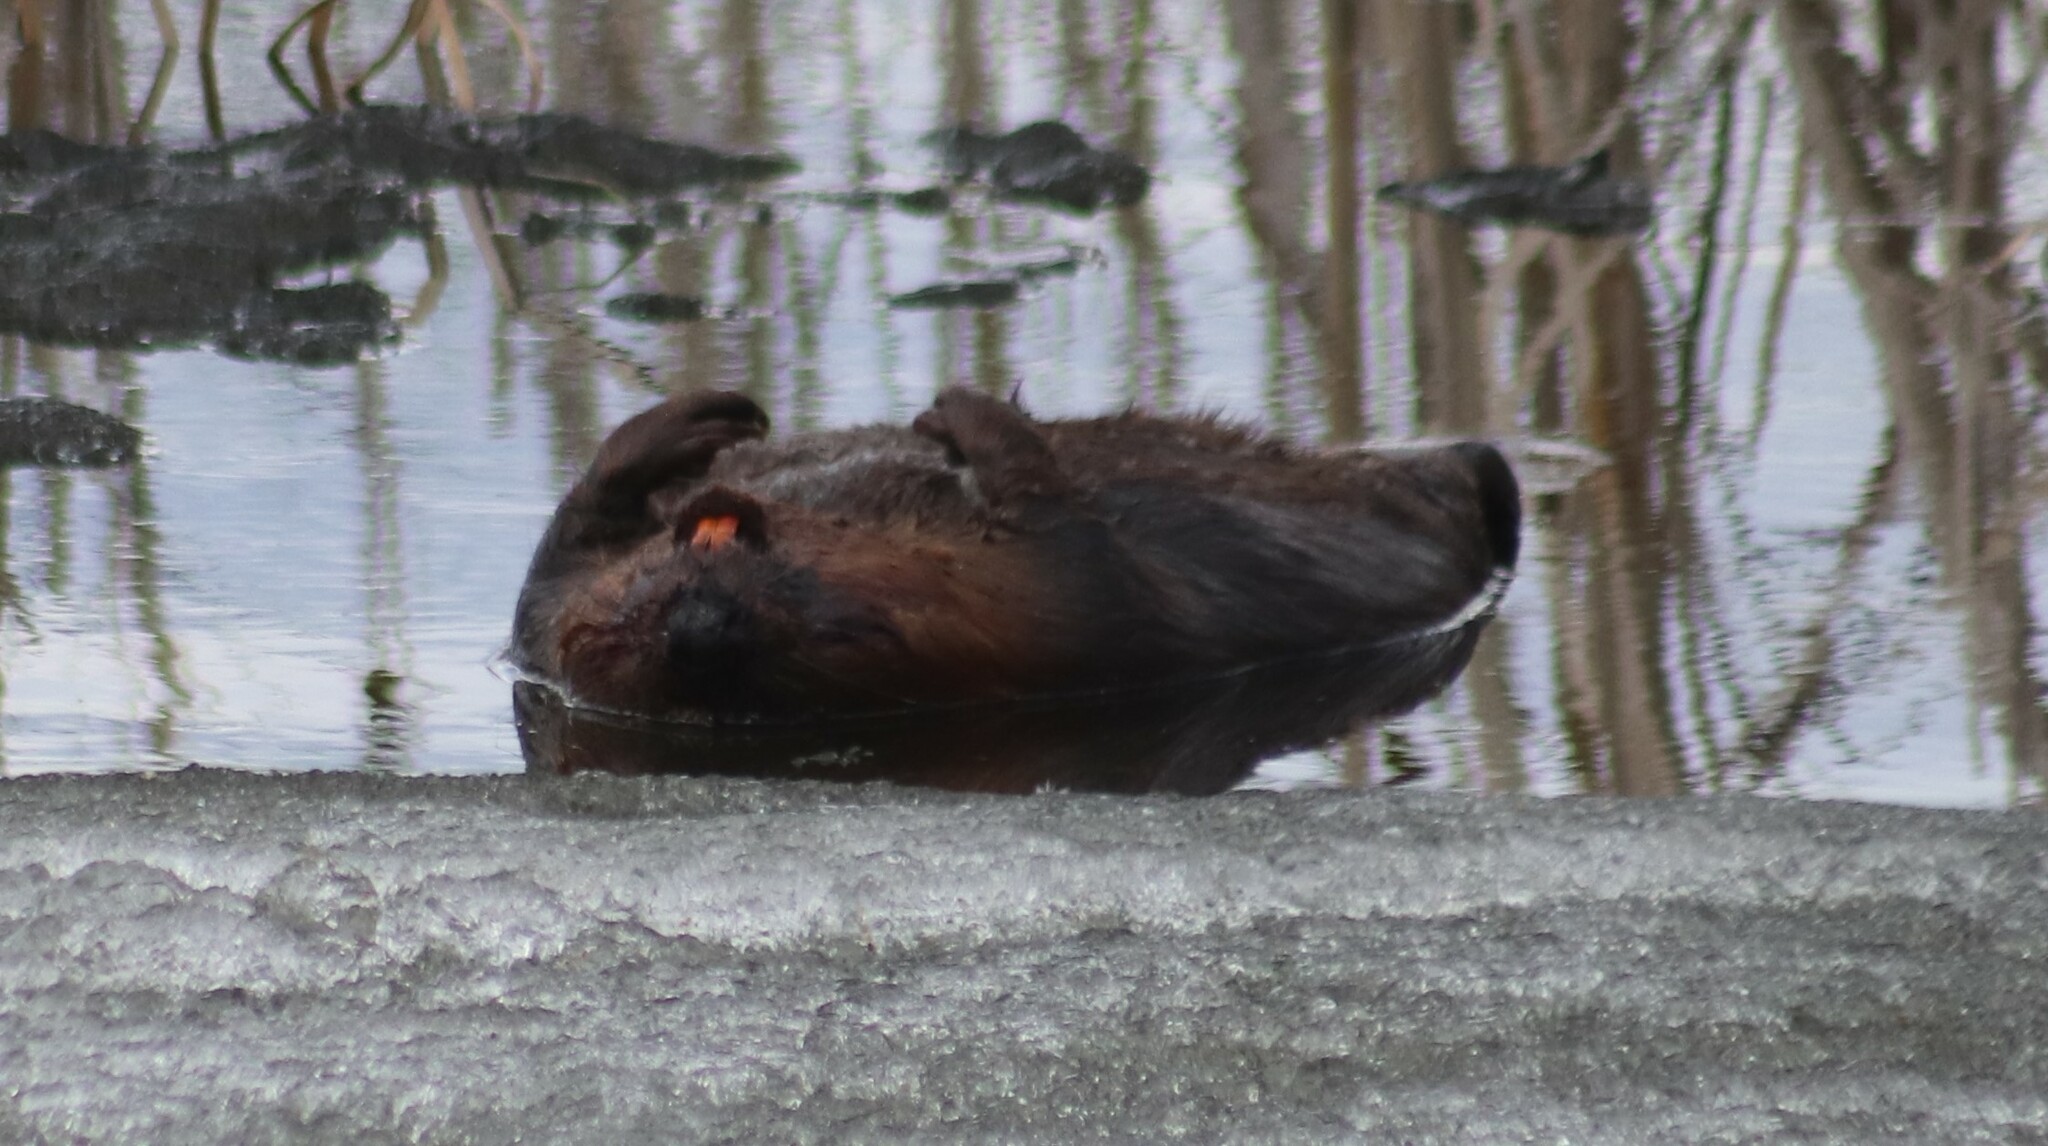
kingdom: Animalia
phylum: Chordata
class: Mammalia
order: Rodentia
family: Castoridae
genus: Castor
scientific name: Castor canadensis
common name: American beaver
